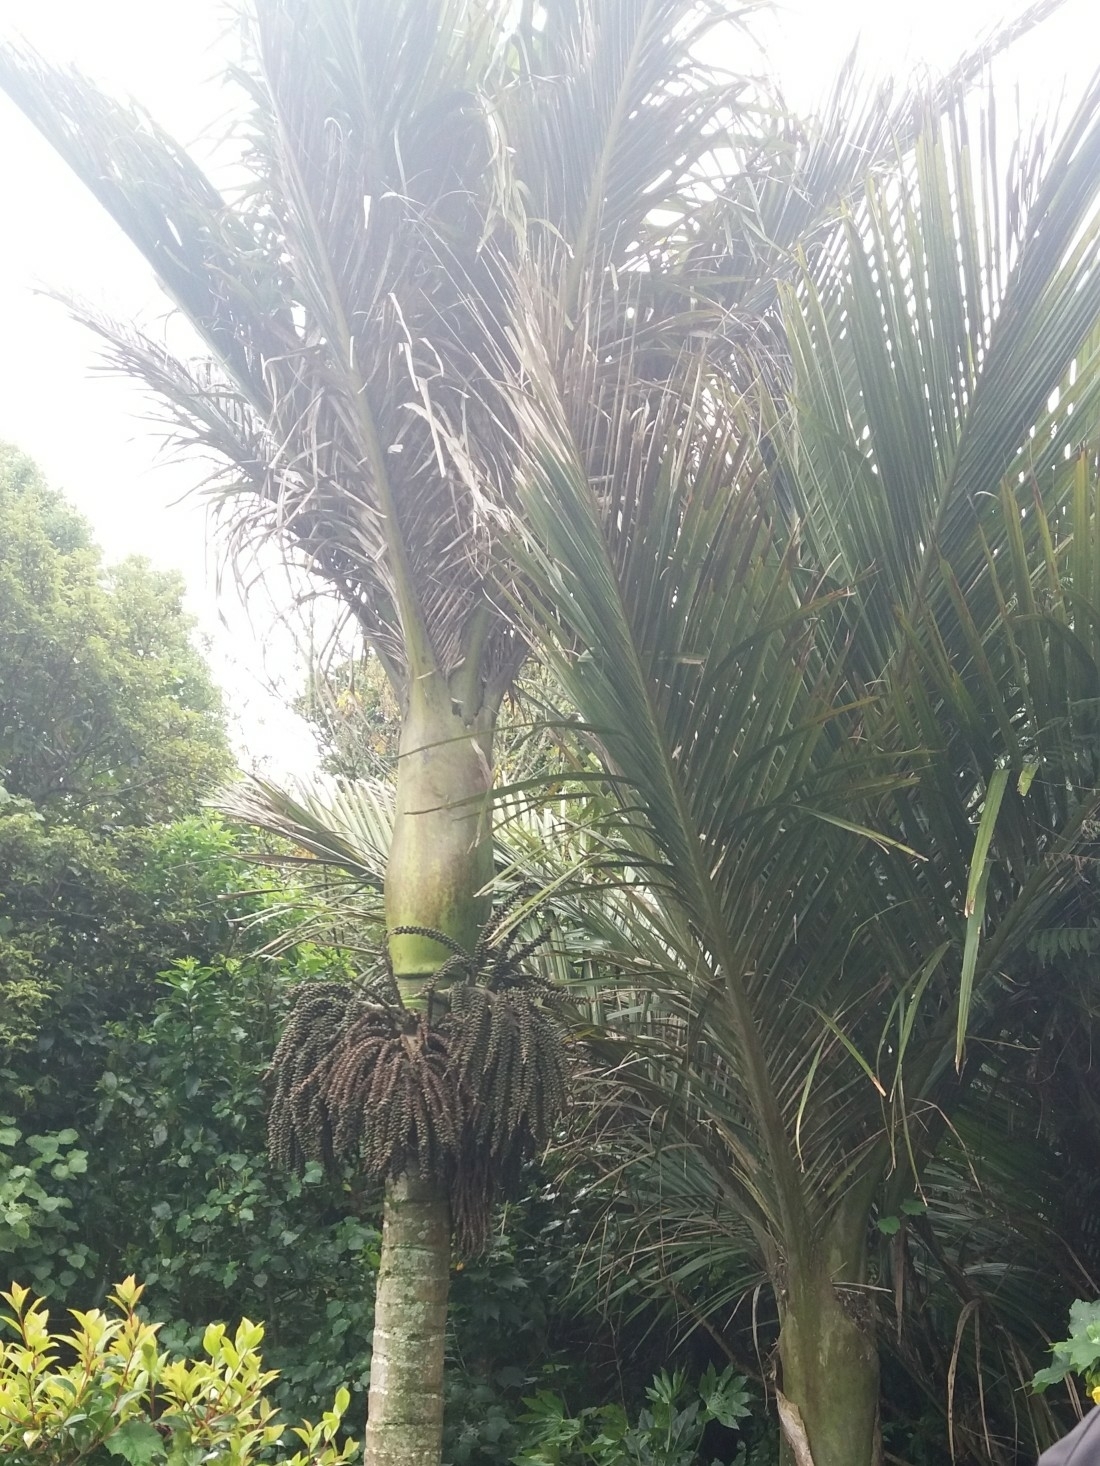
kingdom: Plantae
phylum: Tracheophyta
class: Liliopsida
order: Arecales
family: Arecaceae
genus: Rhopalostylis
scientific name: Rhopalostylis sapida
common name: Feather-duster palm
